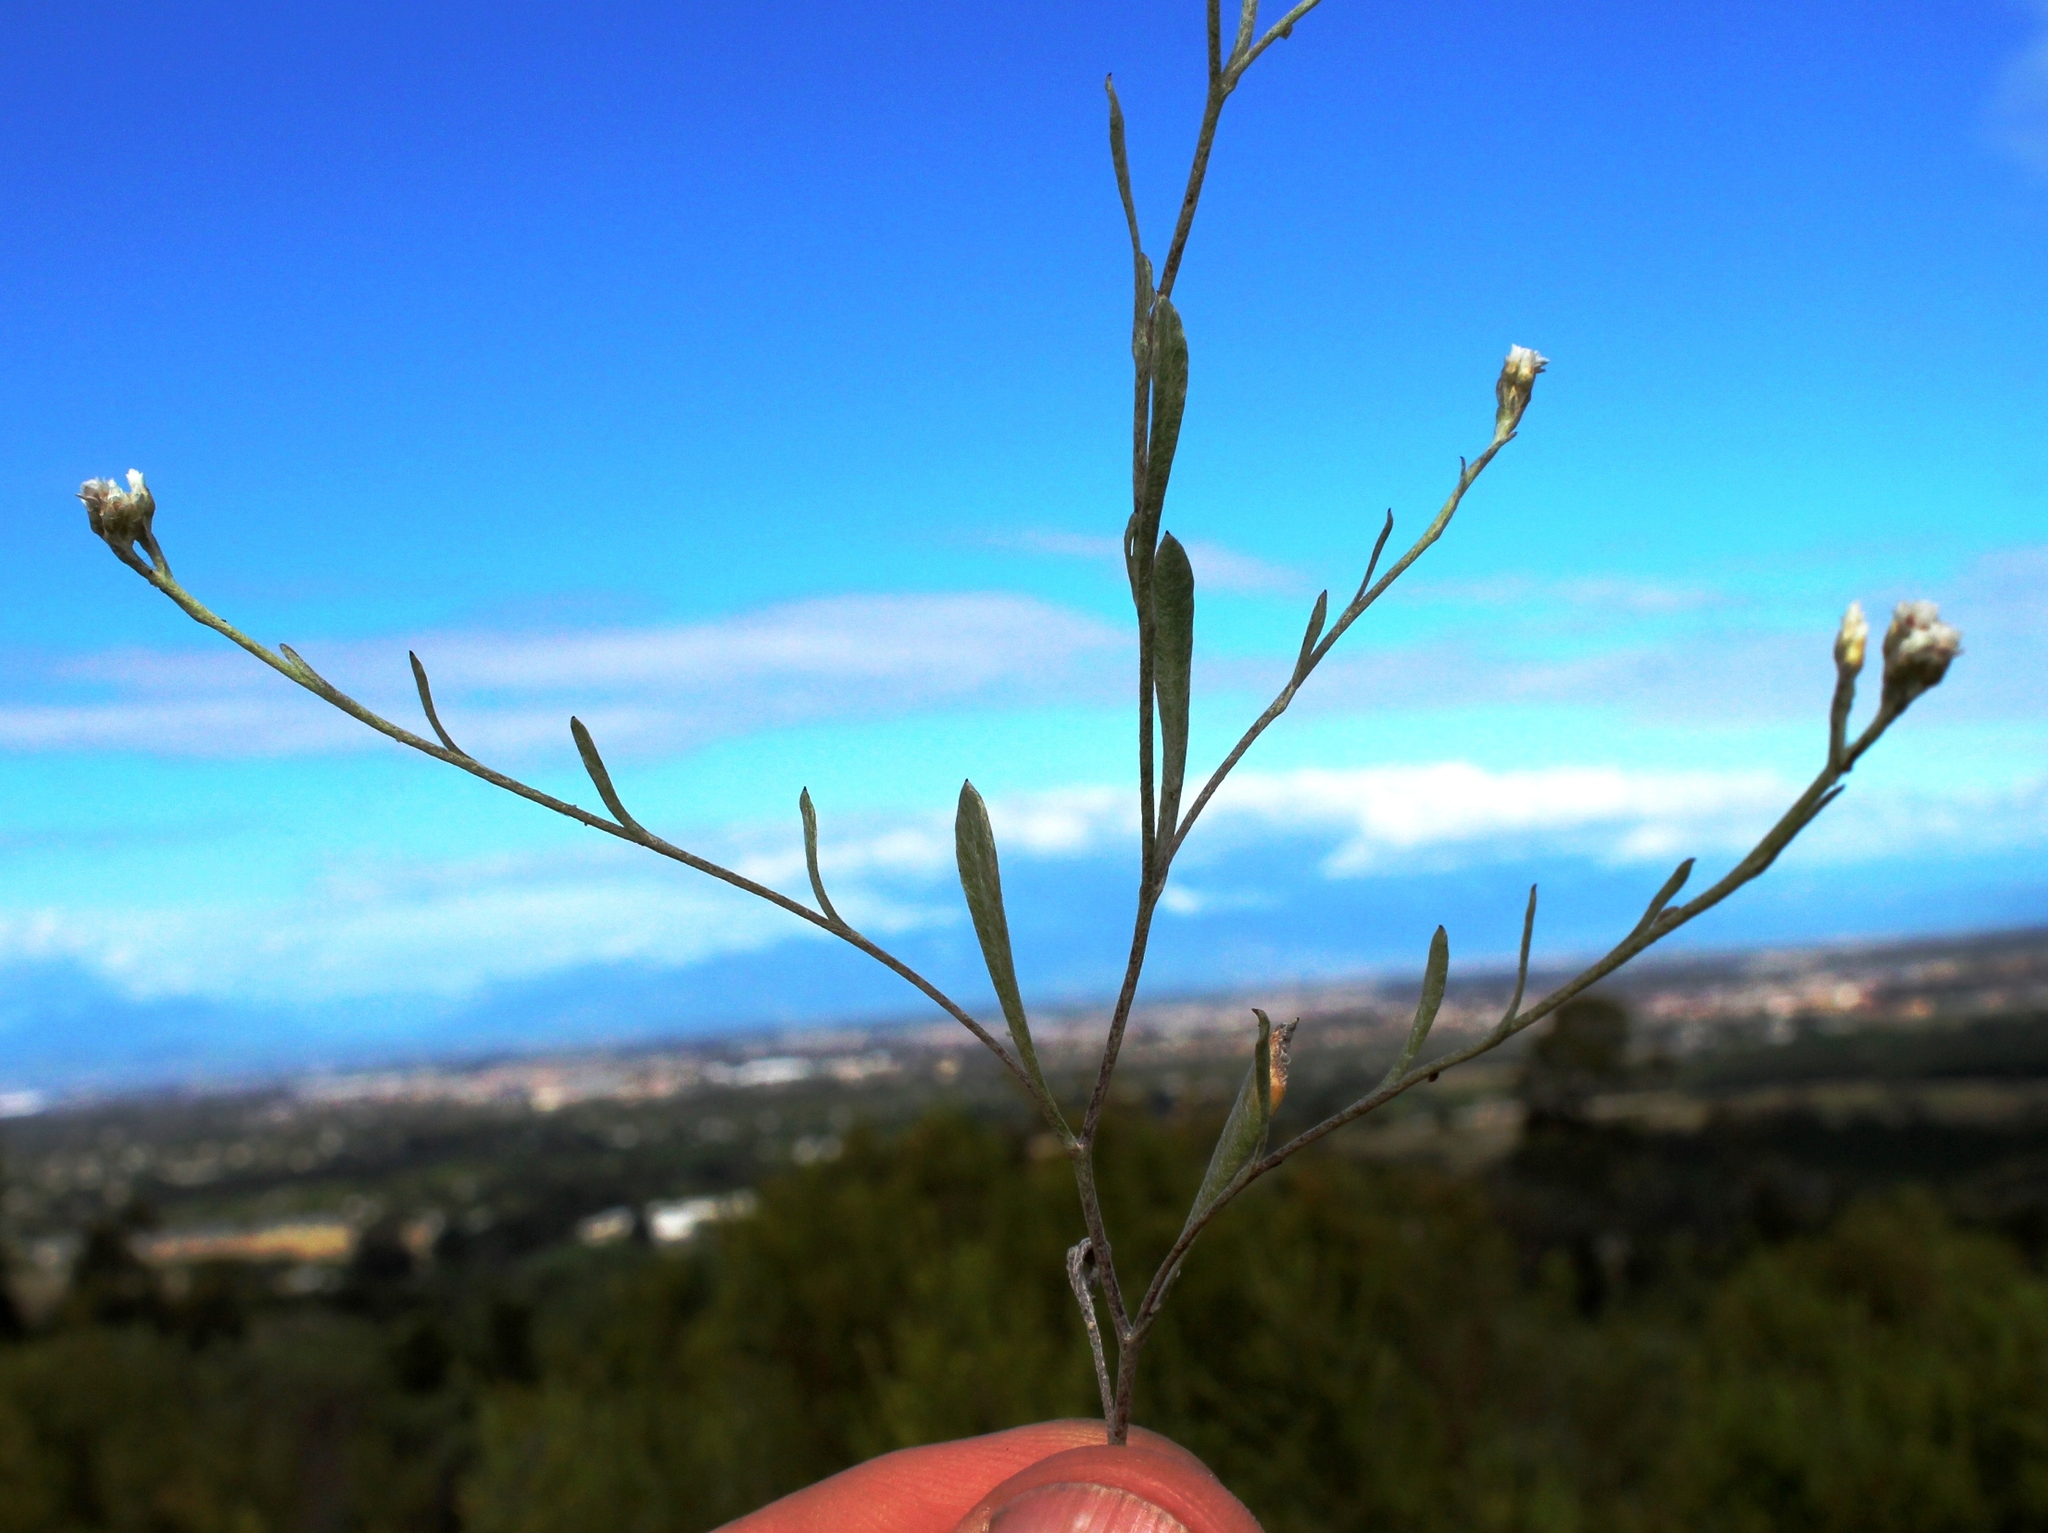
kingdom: Plantae
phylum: Tracheophyta
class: Magnoliopsida
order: Asterales
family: Asteraceae
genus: Helichrysum
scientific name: Helichrysum indicum
